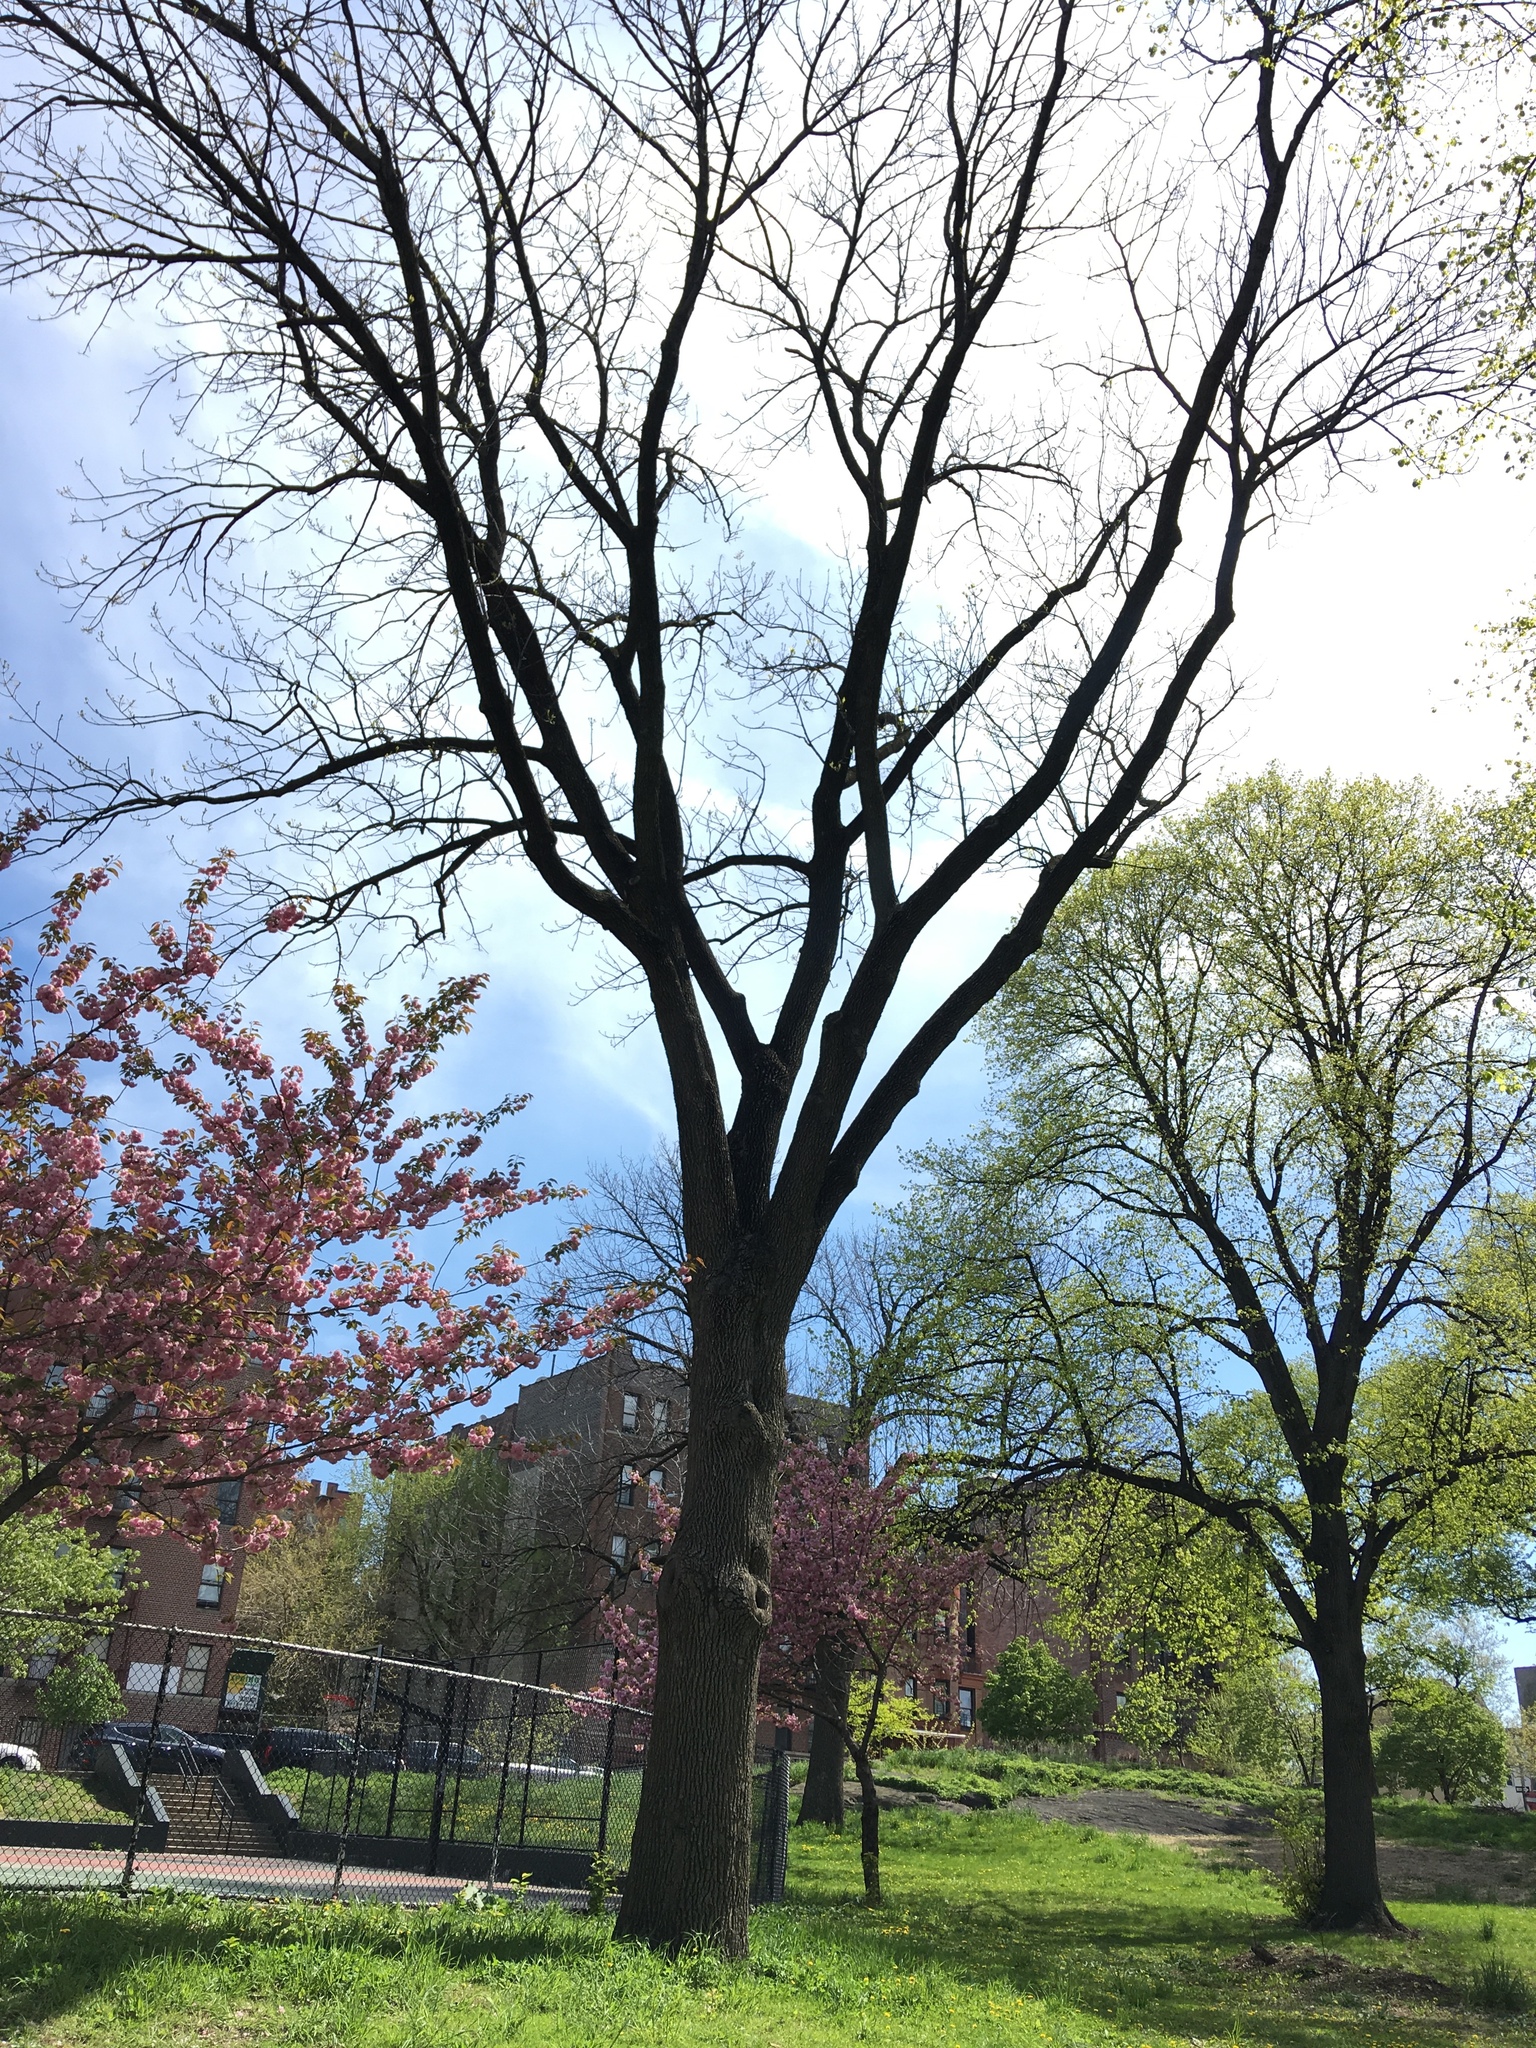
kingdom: Plantae
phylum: Tracheophyta
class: Magnoliopsida
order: Lamiales
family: Oleaceae
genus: Fraxinus
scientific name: Fraxinus americana
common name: White ash
